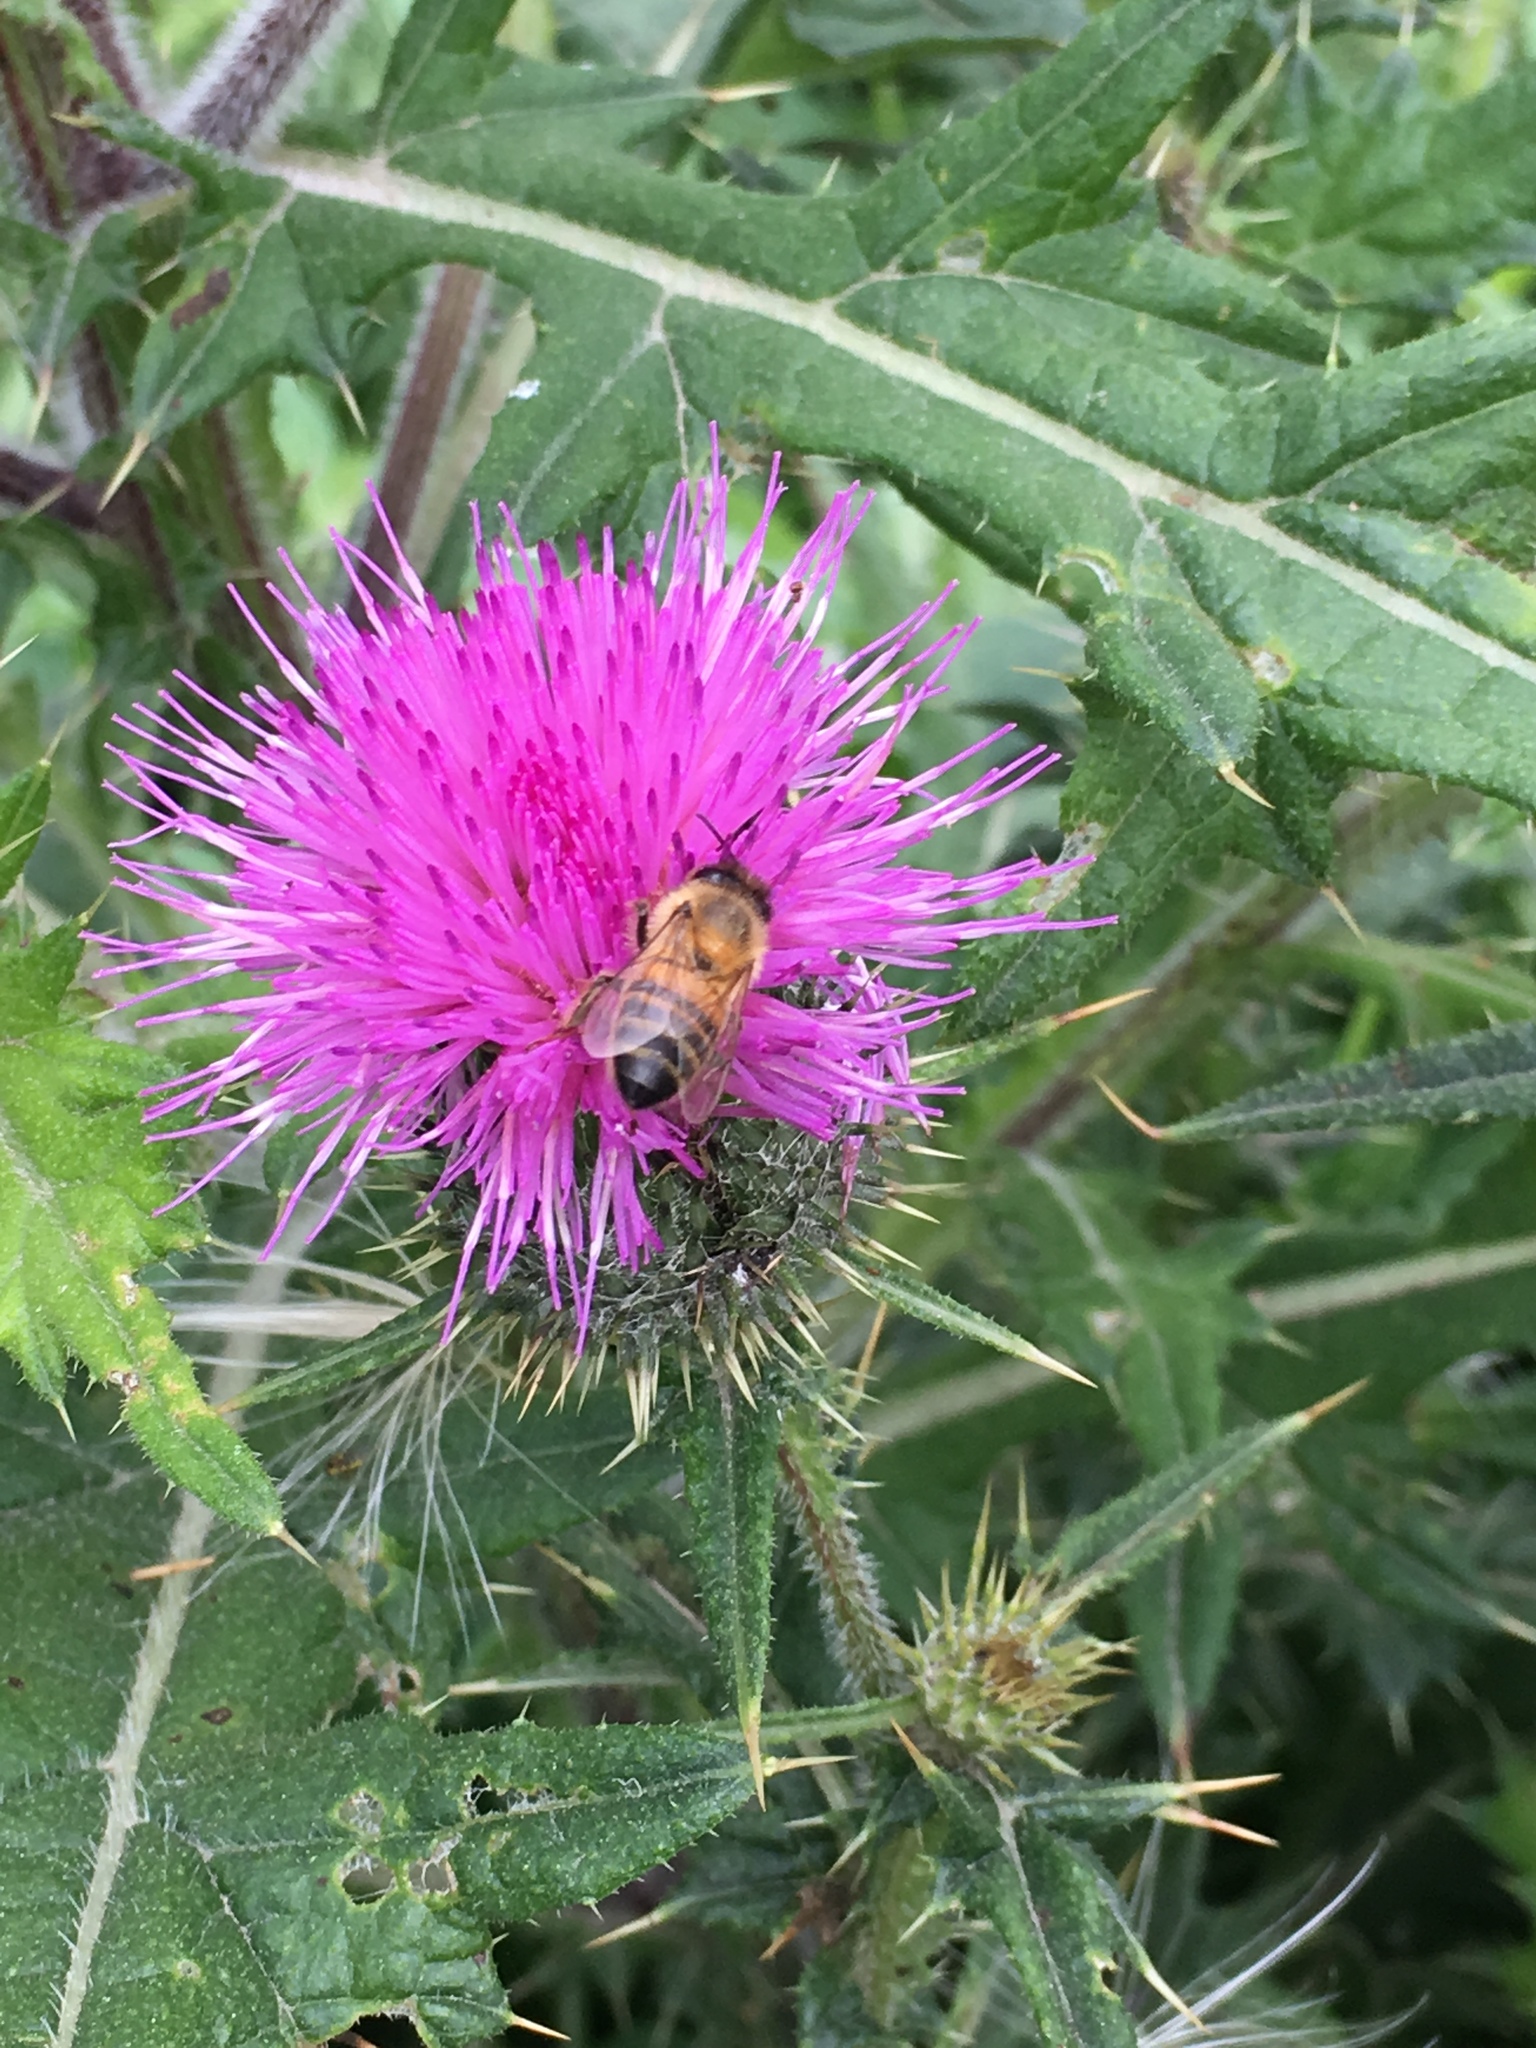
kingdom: Animalia
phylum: Arthropoda
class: Insecta
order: Hymenoptera
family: Apidae
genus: Apis
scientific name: Apis mellifera
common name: Honey bee
